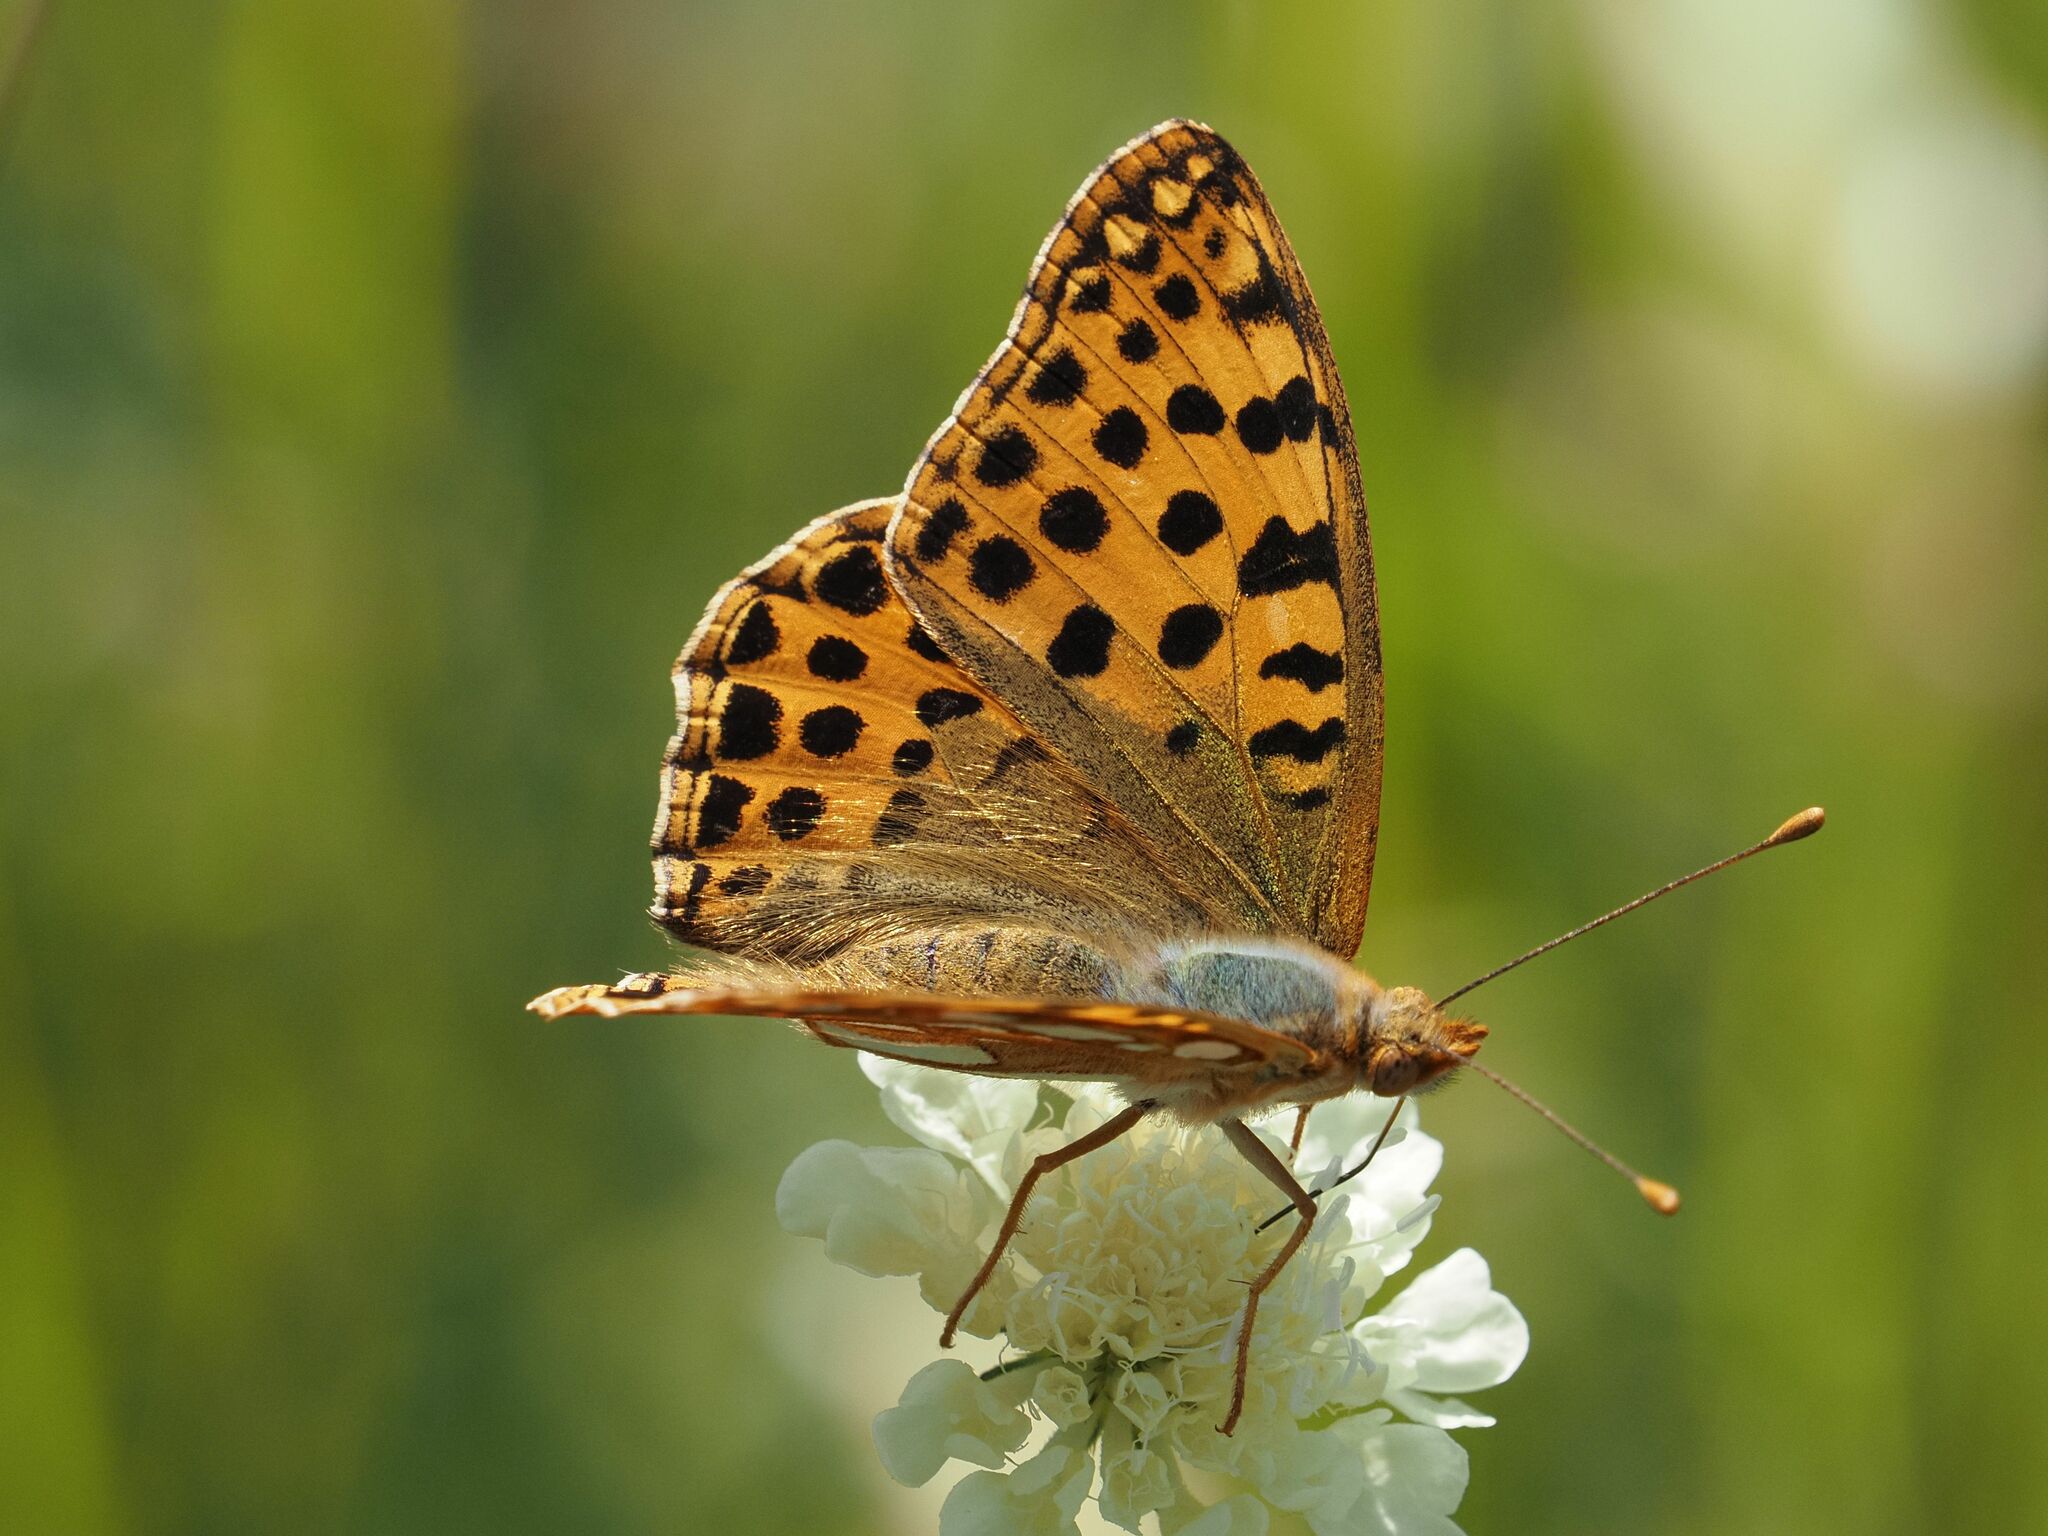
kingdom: Animalia
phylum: Arthropoda
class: Insecta
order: Lepidoptera
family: Nymphalidae
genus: Issoria
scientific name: Issoria lathonia
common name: Queen of spain fritillary
